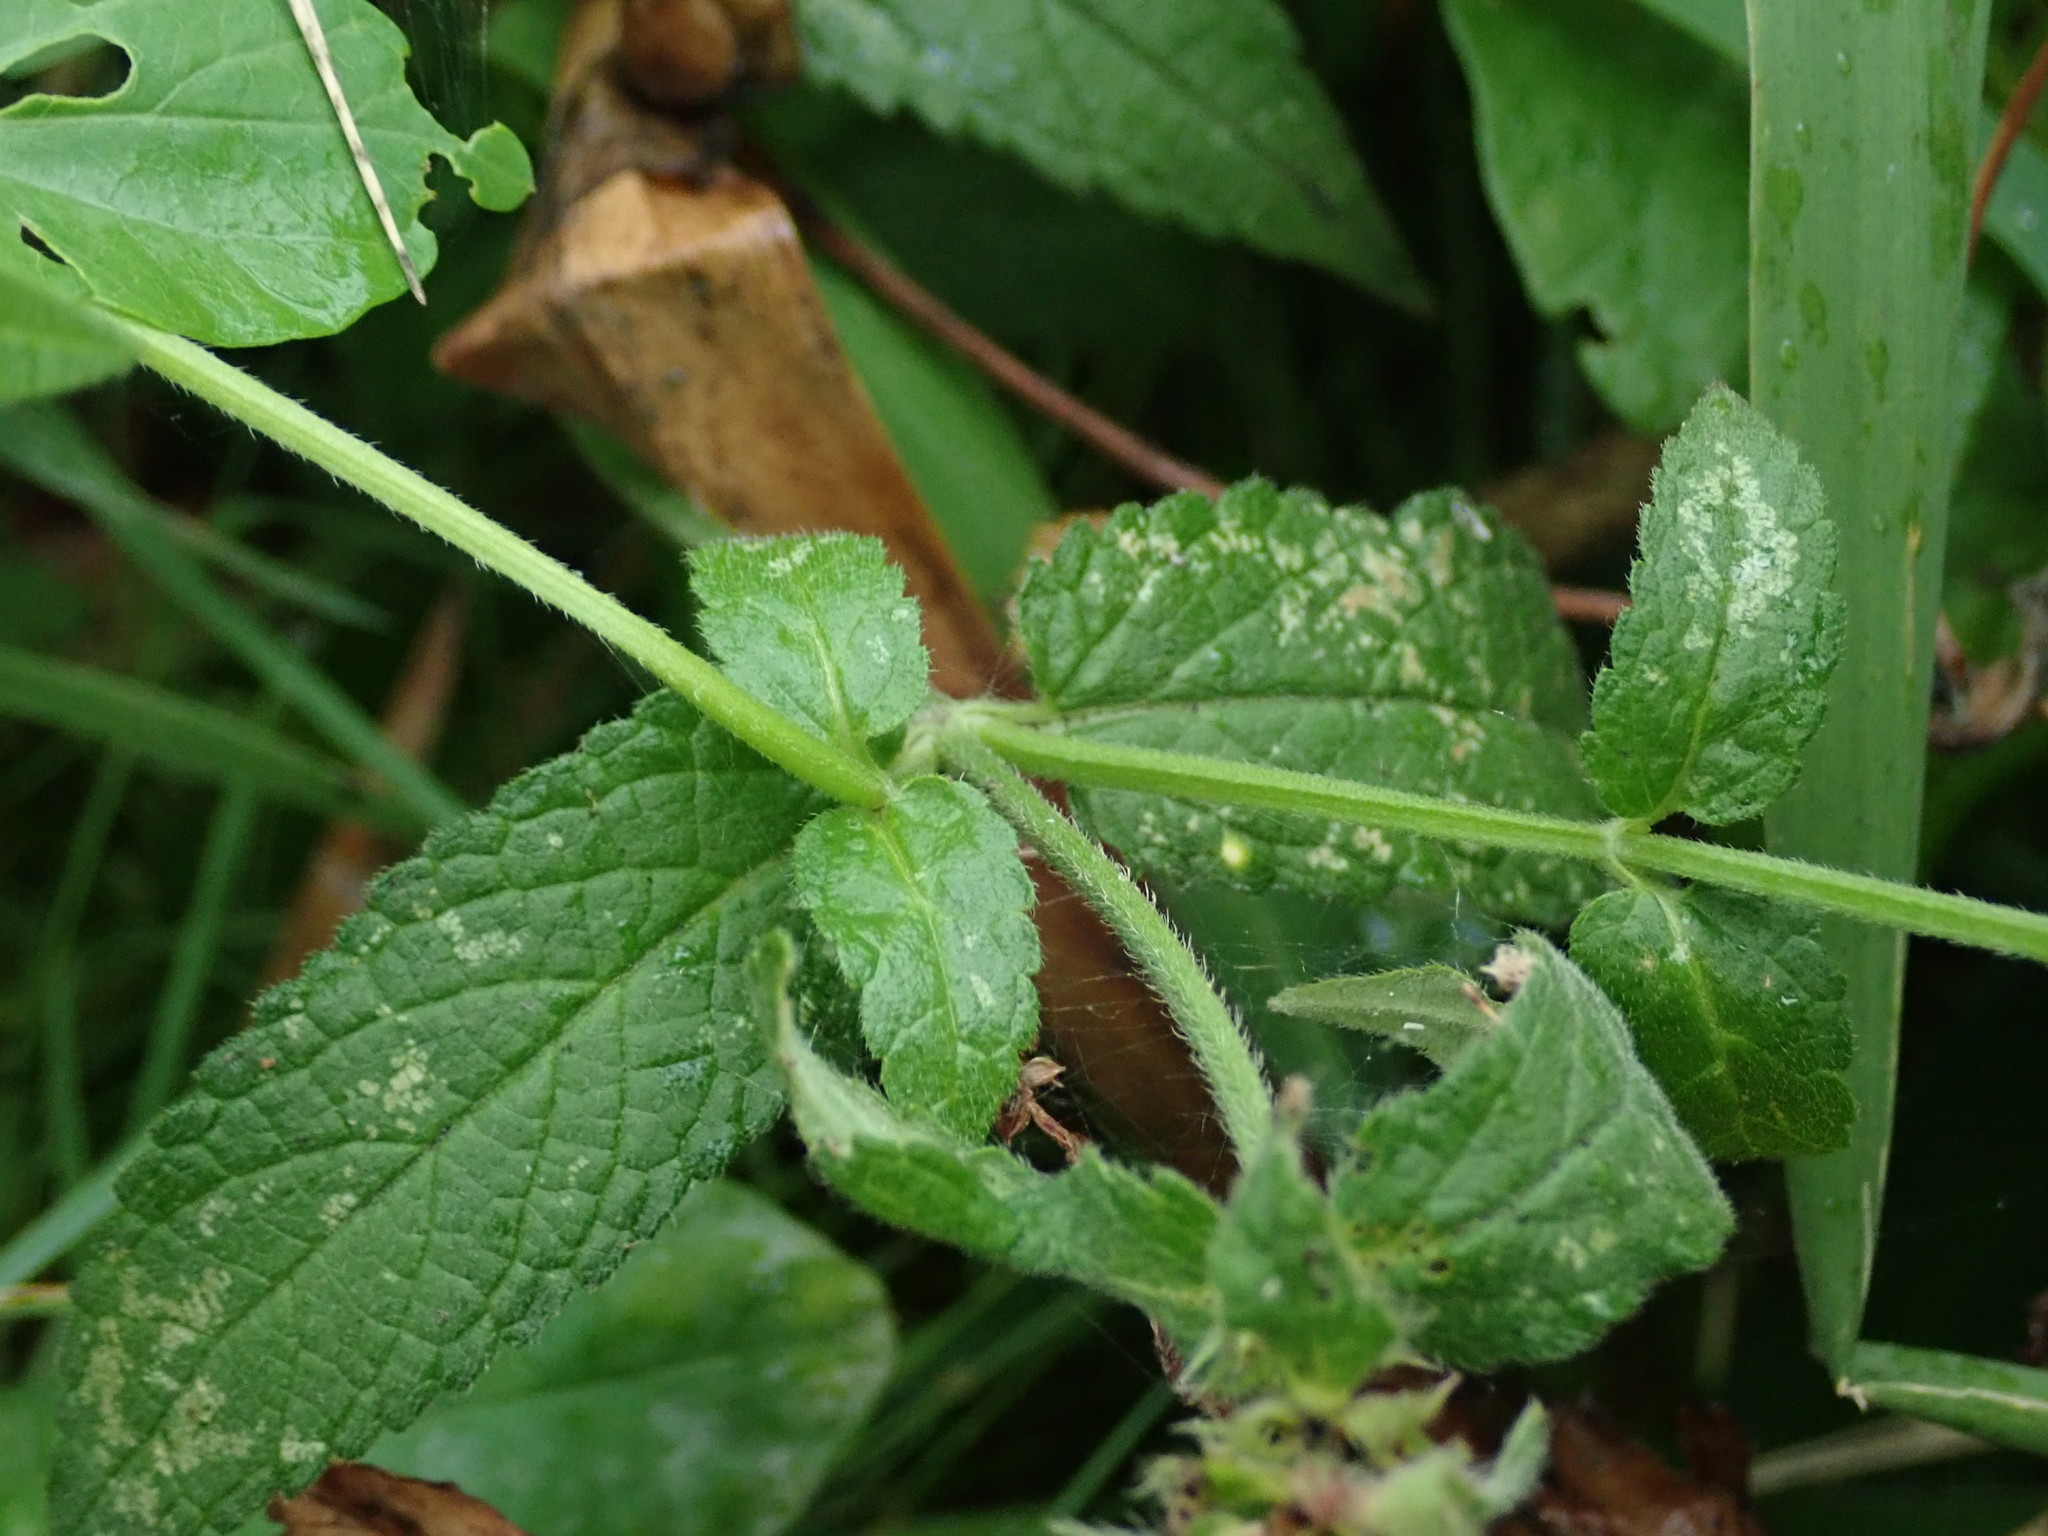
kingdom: Plantae
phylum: Tracheophyta
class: Magnoliopsida
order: Lamiales
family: Lamiaceae
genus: Stachys
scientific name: Stachys palustris
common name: Marsh woundwort
